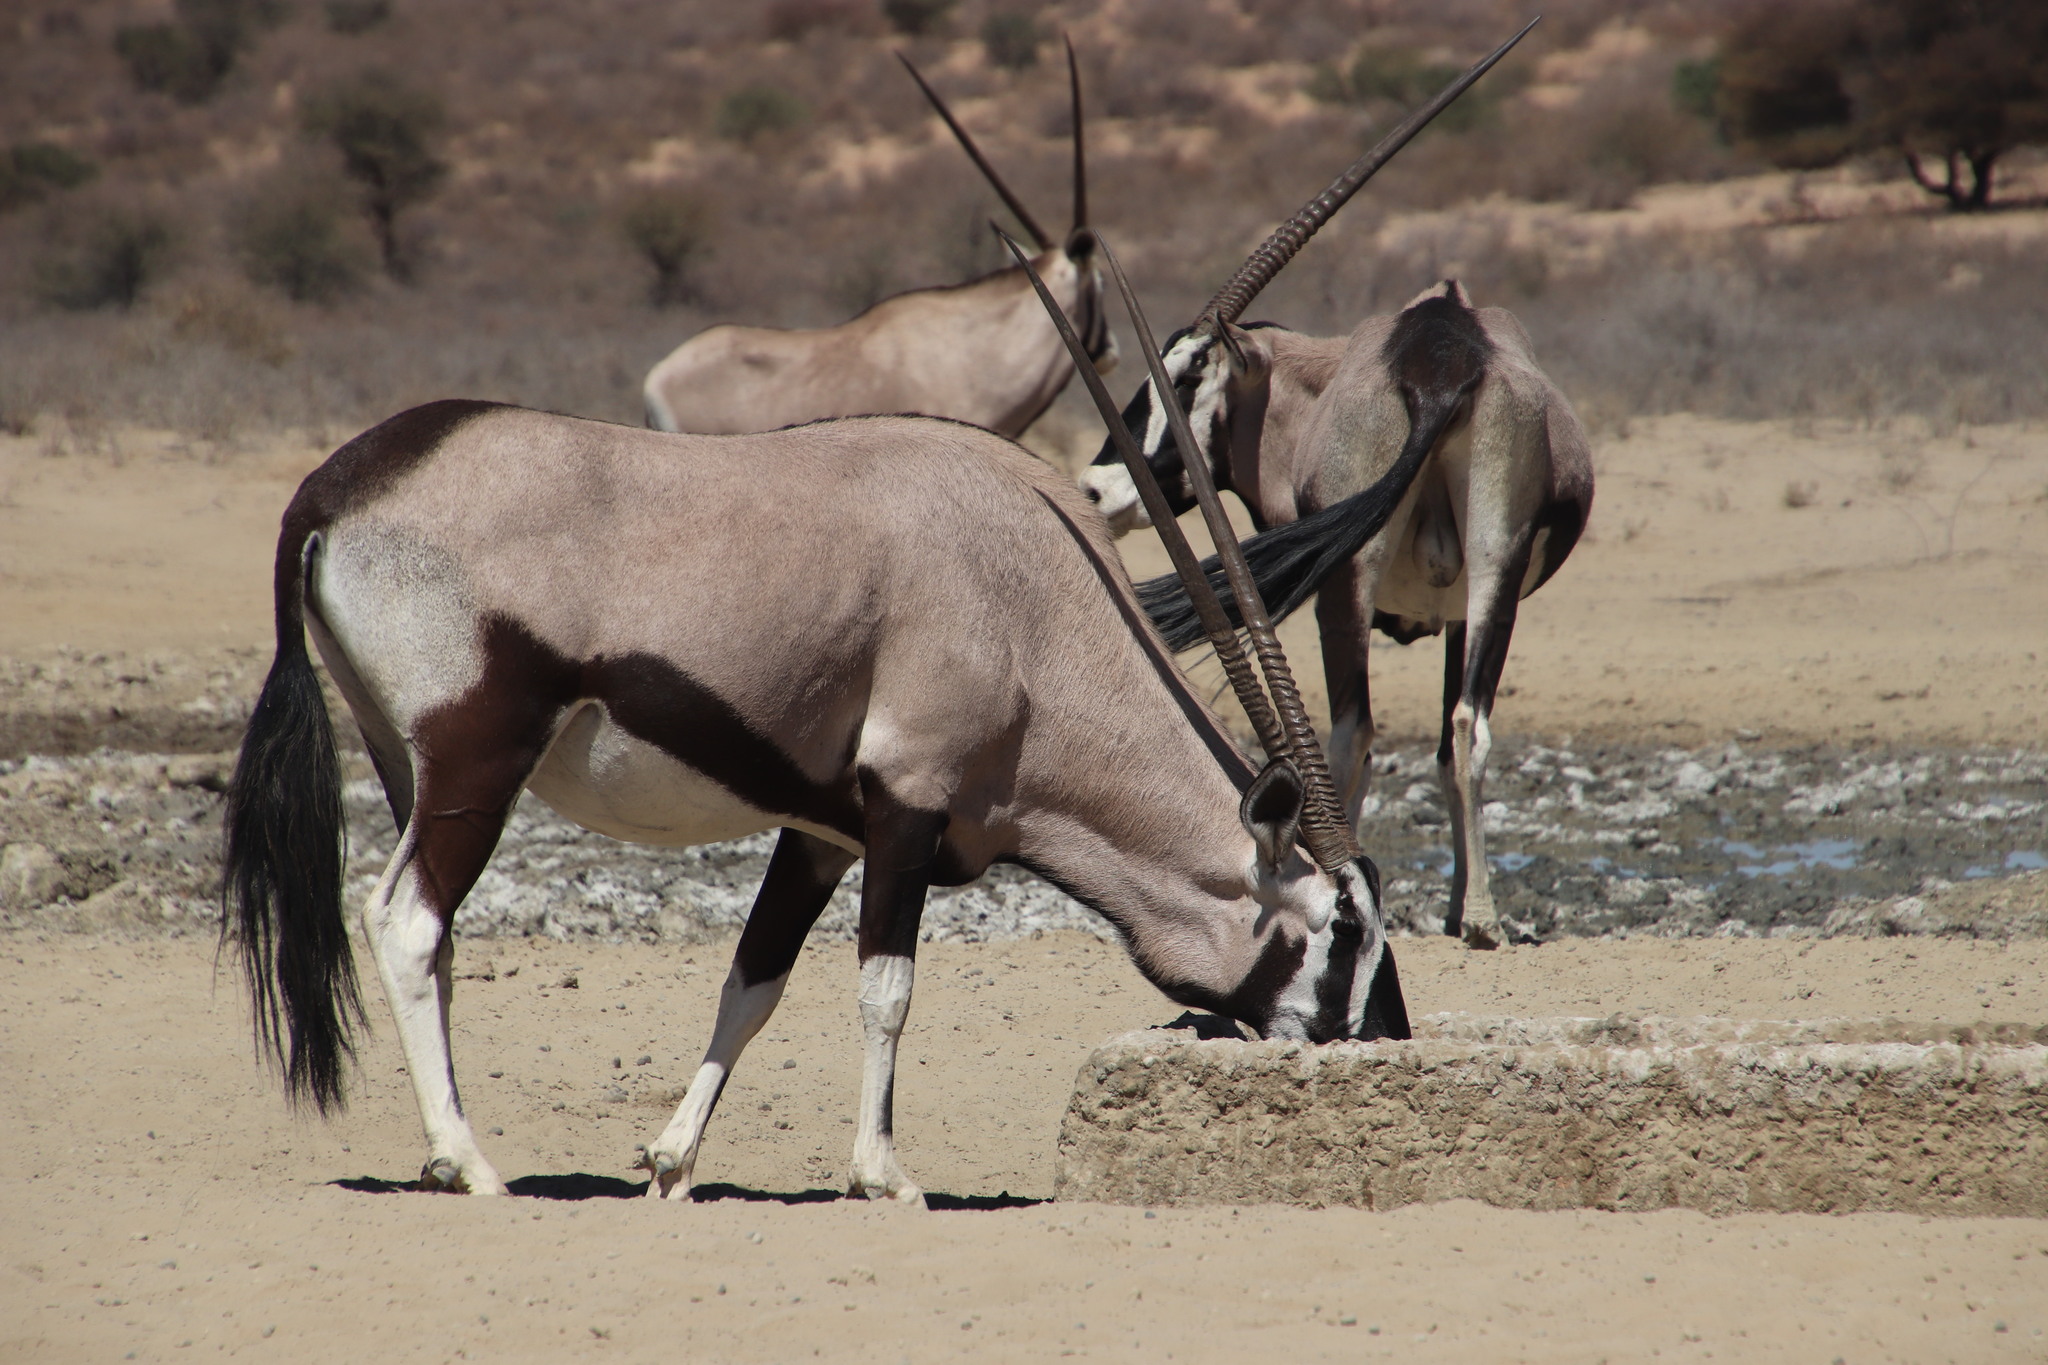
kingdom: Animalia
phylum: Chordata
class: Mammalia
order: Artiodactyla
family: Bovidae
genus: Oryx
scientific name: Oryx gazella
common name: Gemsbok
